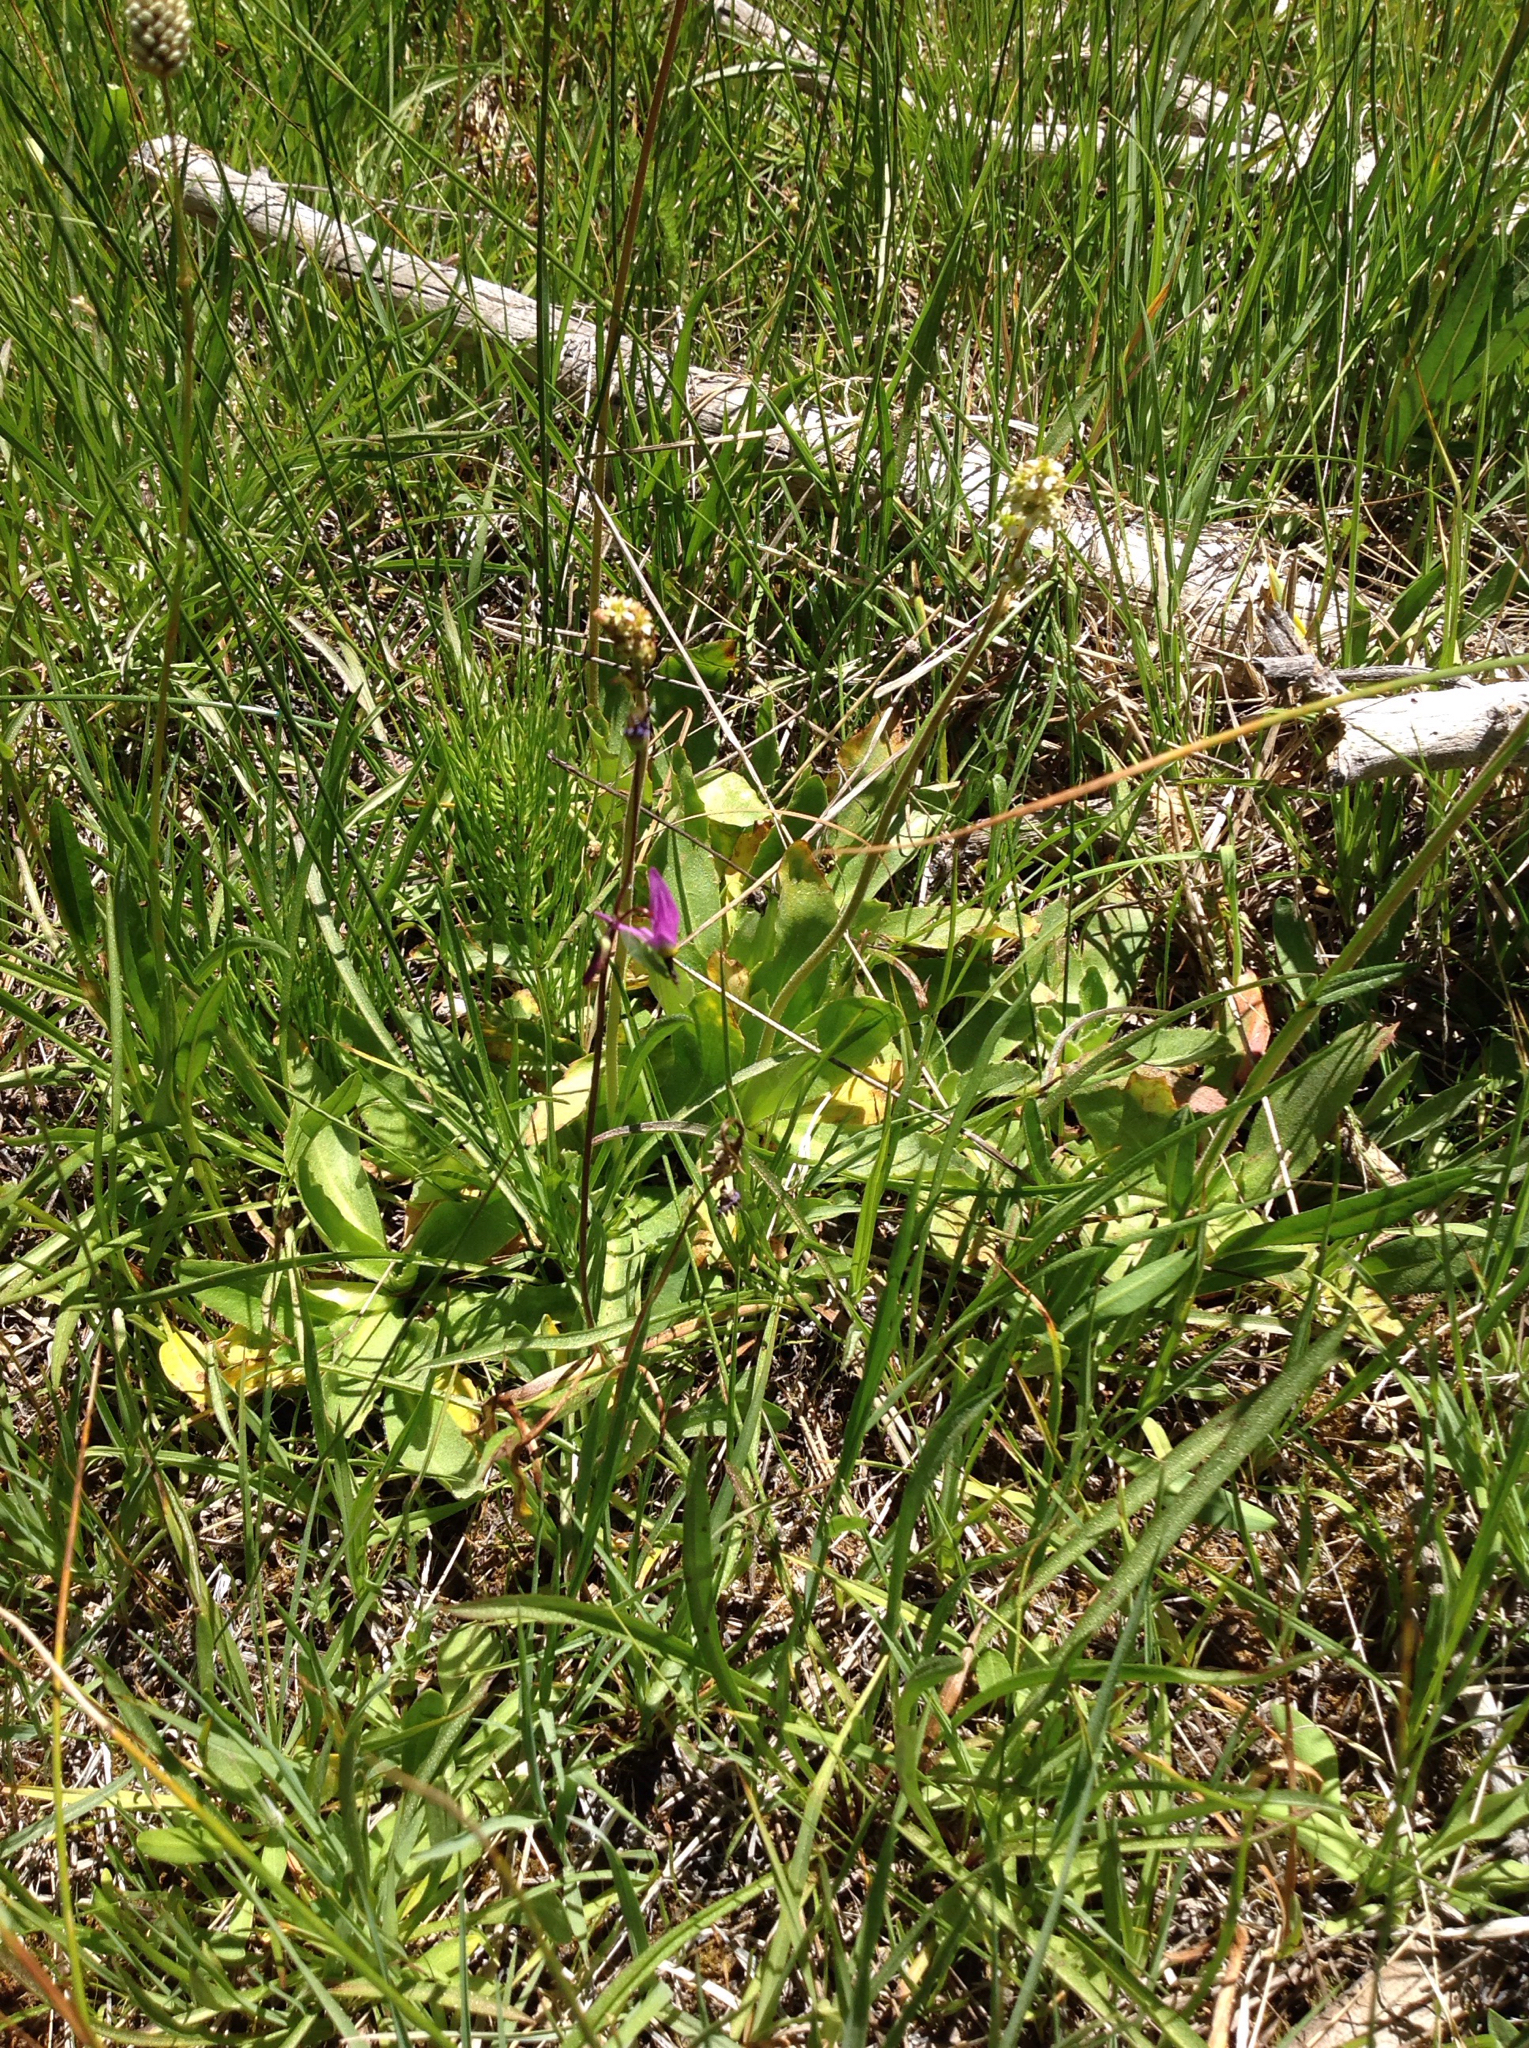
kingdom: Plantae
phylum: Tracheophyta
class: Magnoliopsida
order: Ericales
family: Primulaceae
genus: Dodecatheon
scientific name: Dodecatheon alpinum
